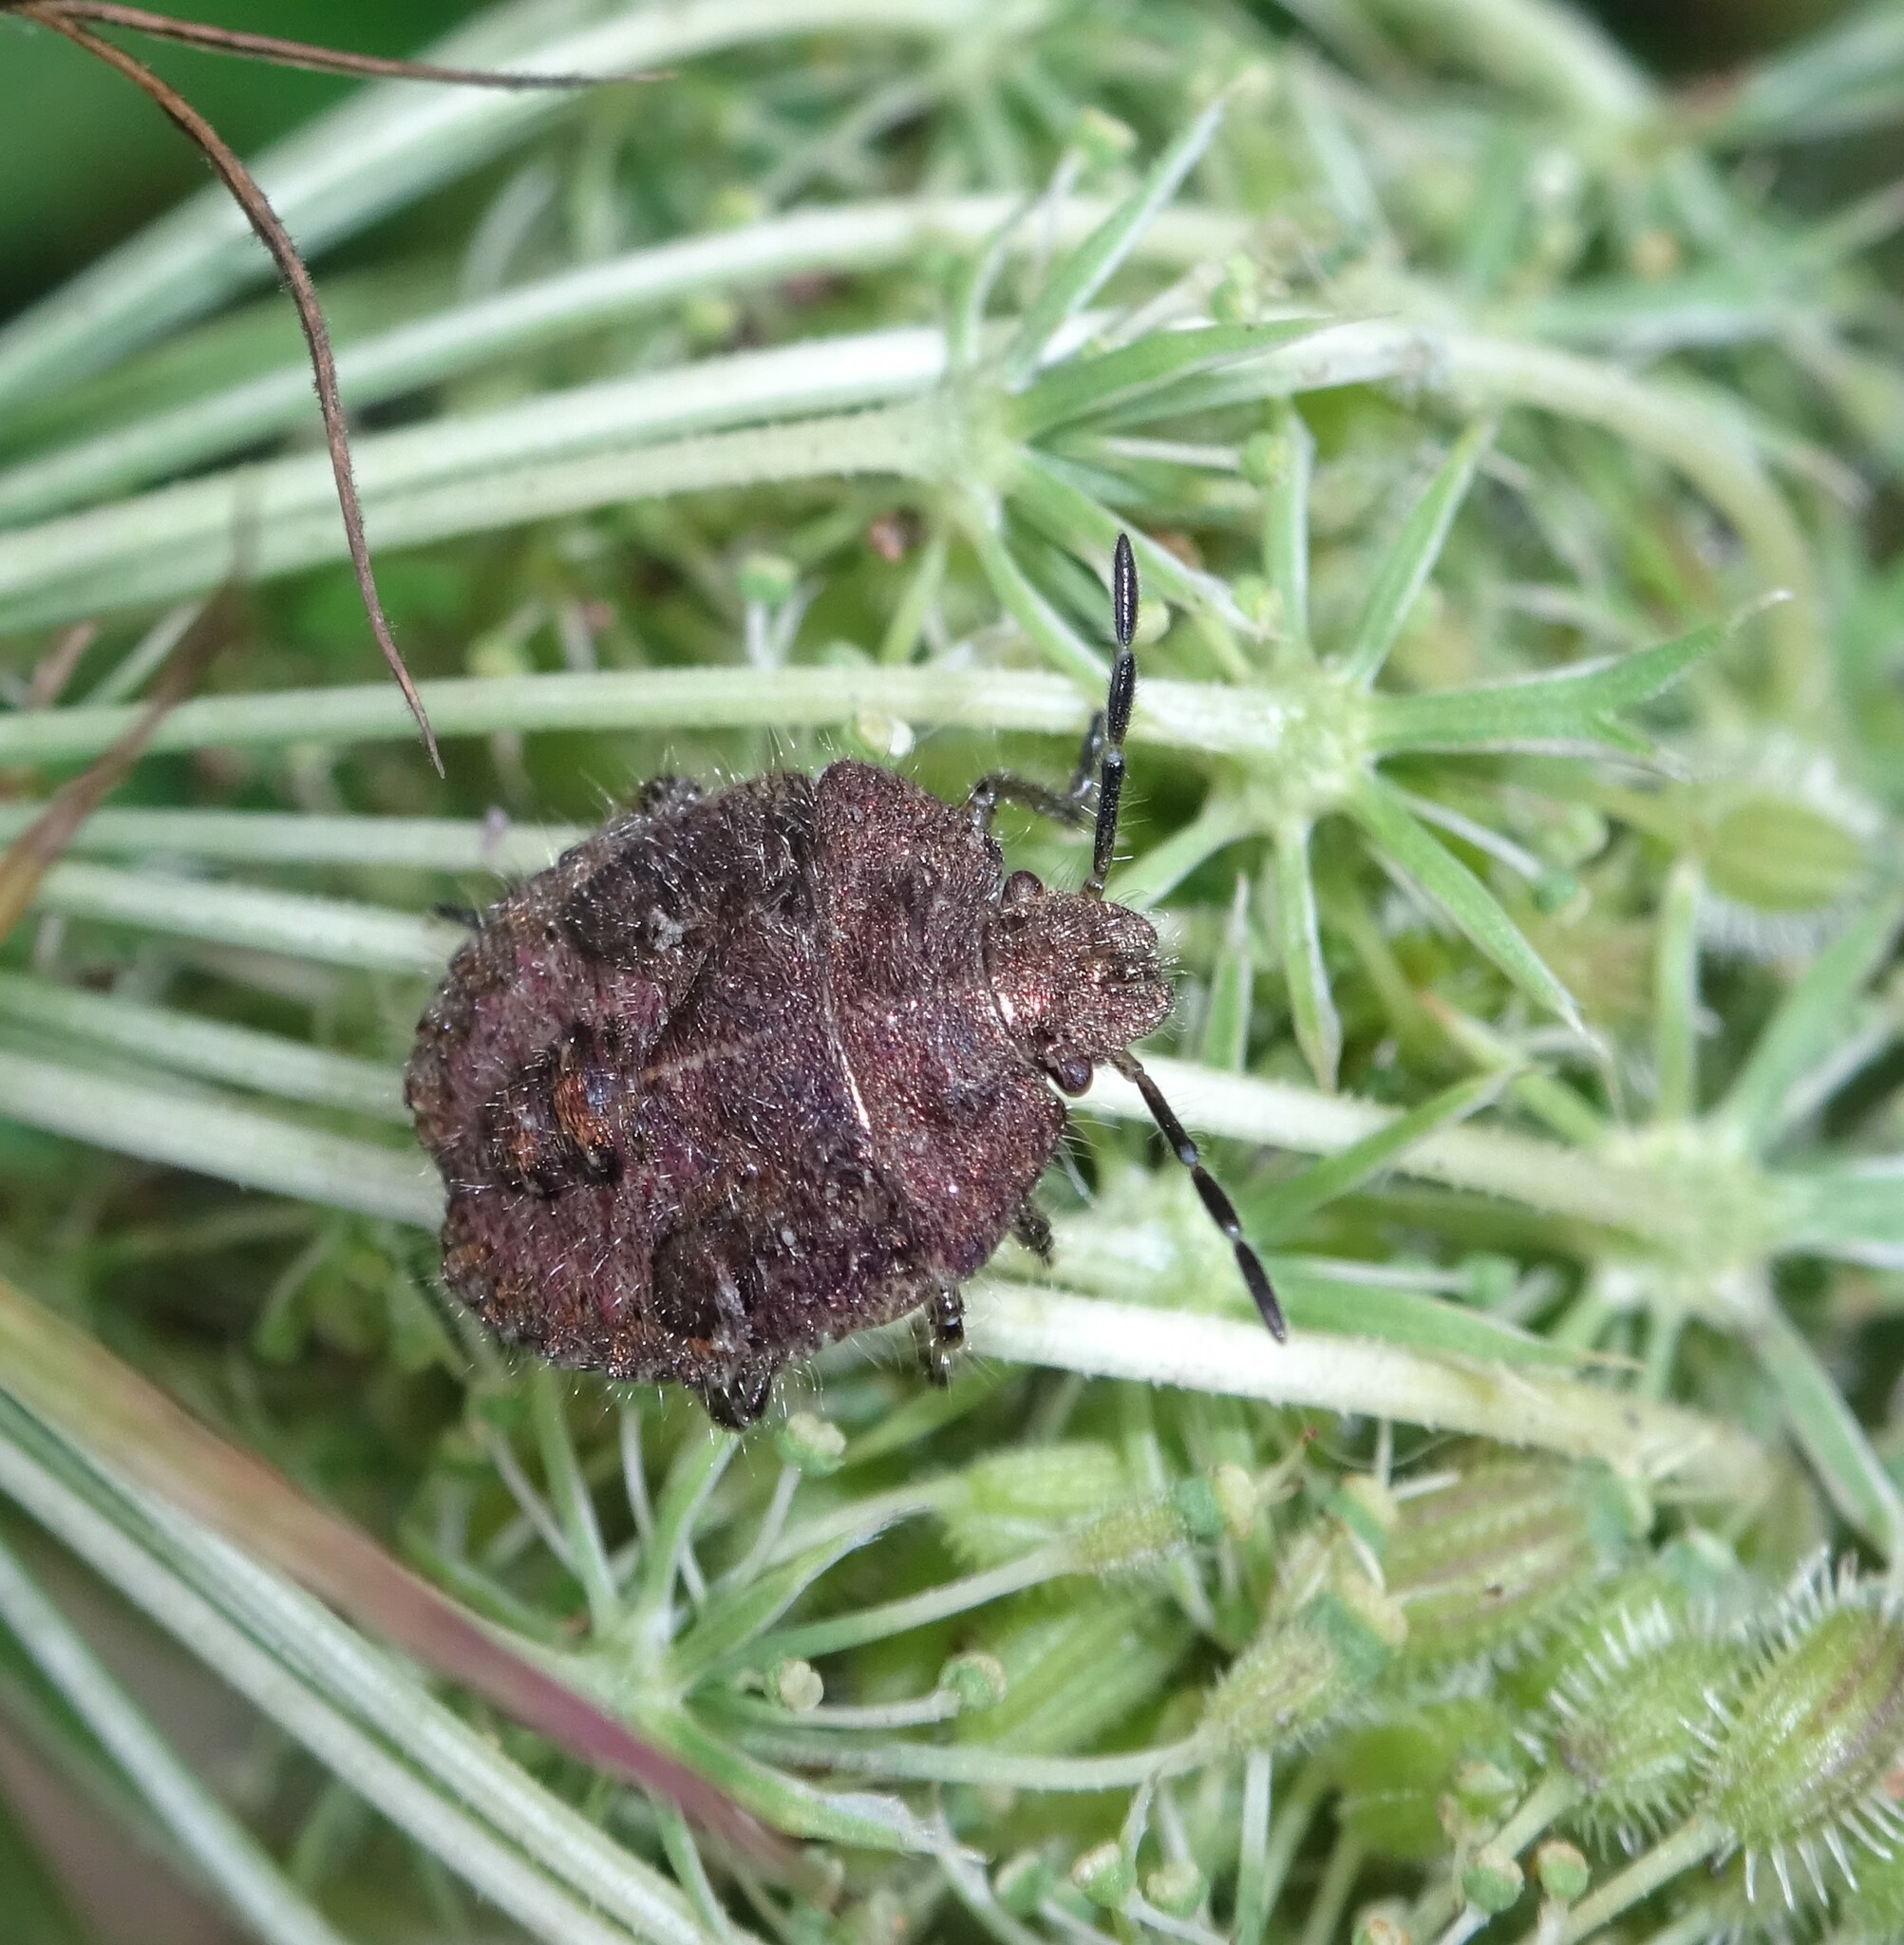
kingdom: Animalia
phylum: Arthropoda
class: Insecta
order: Hemiptera
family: Pentatomidae
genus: Dolycoris
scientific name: Dolycoris baccarum
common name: Sloe bug
